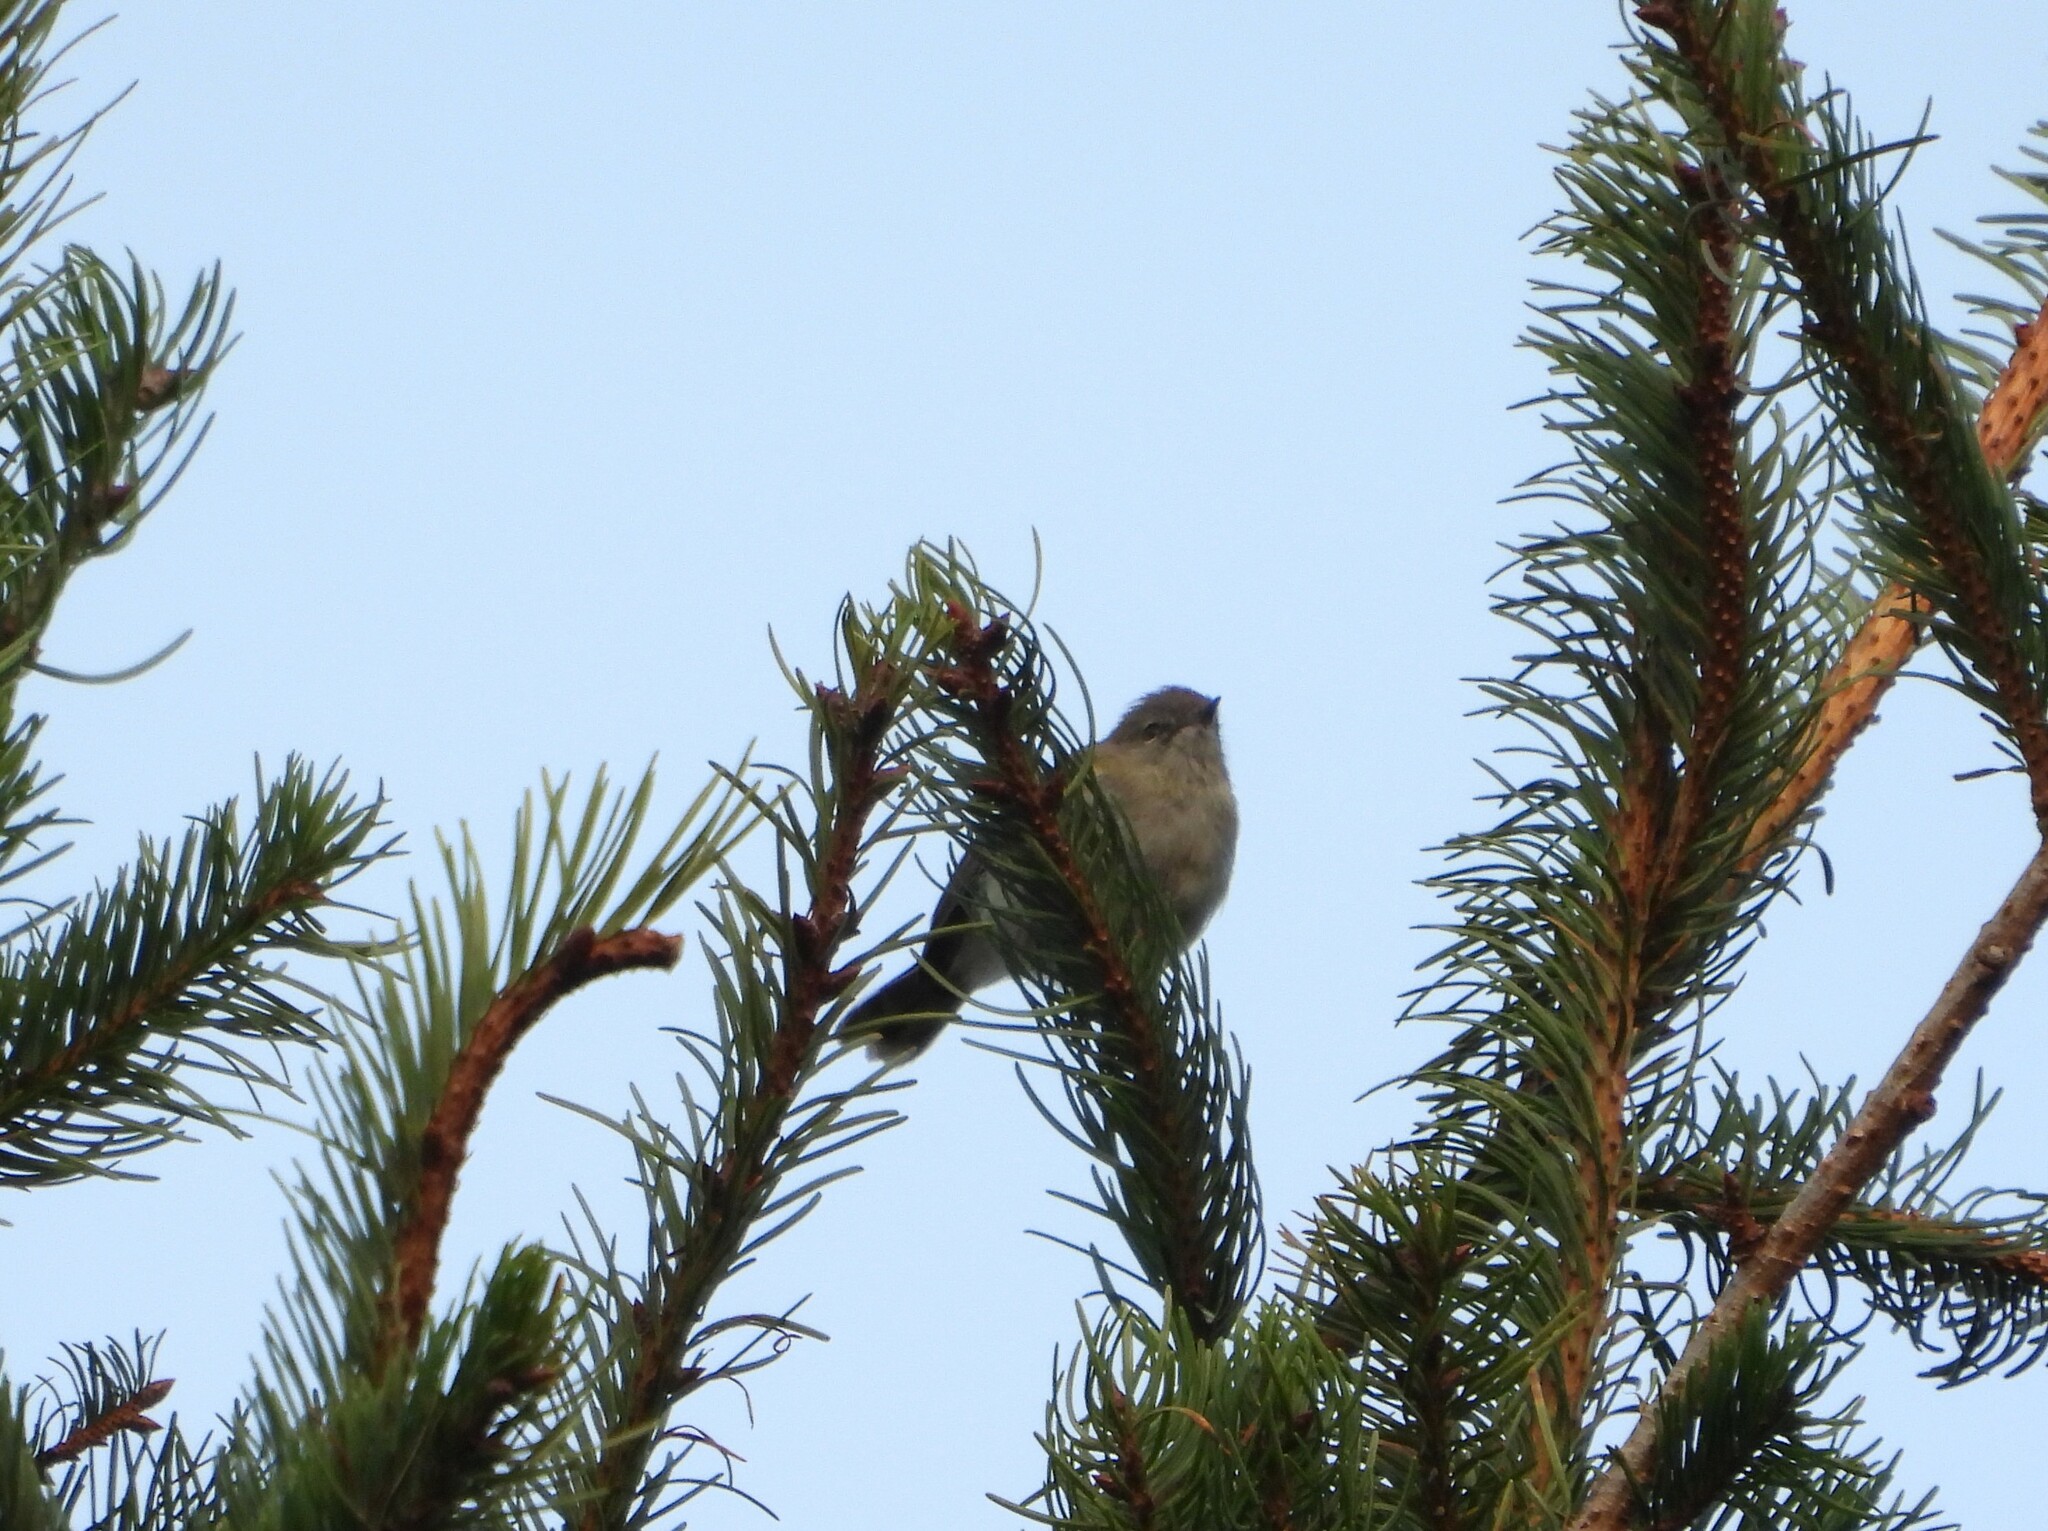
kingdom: Animalia
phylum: Chordata
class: Aves
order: Passeriformes
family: Acanthizidae
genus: Gerygone
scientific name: Gerygone igata
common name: Grey gerygone
